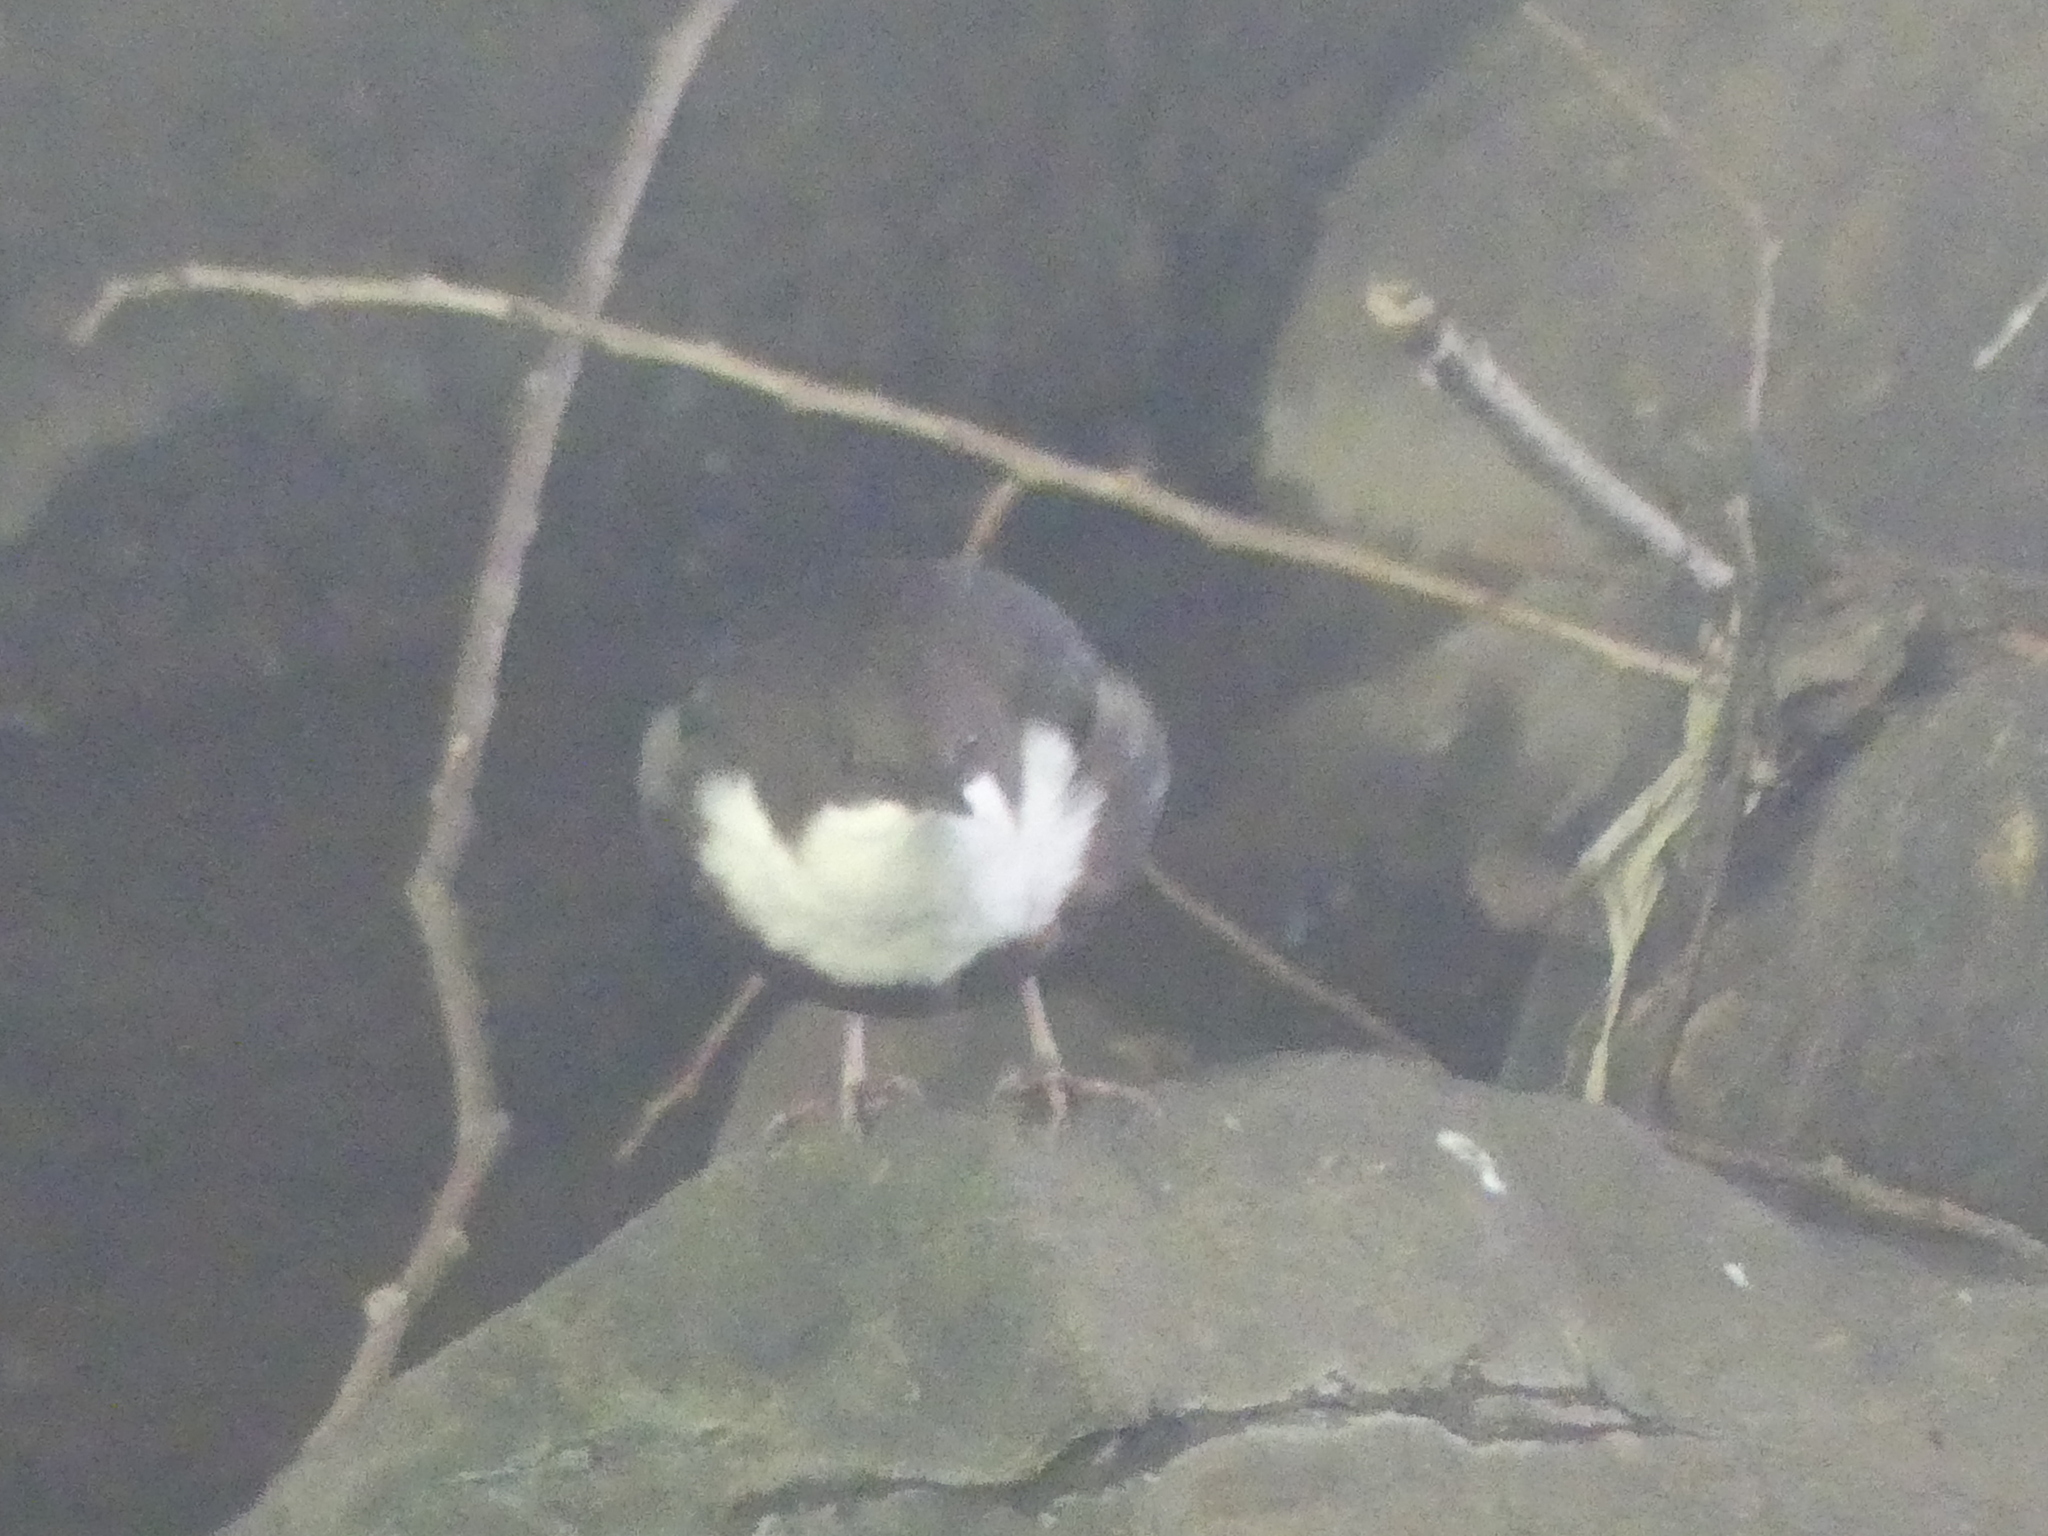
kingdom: Animalia
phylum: Chordata
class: Aves
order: Passeriformes
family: Cinclidae
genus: Cinclus
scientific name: Cinclus cinclus
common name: White-throated dipper
